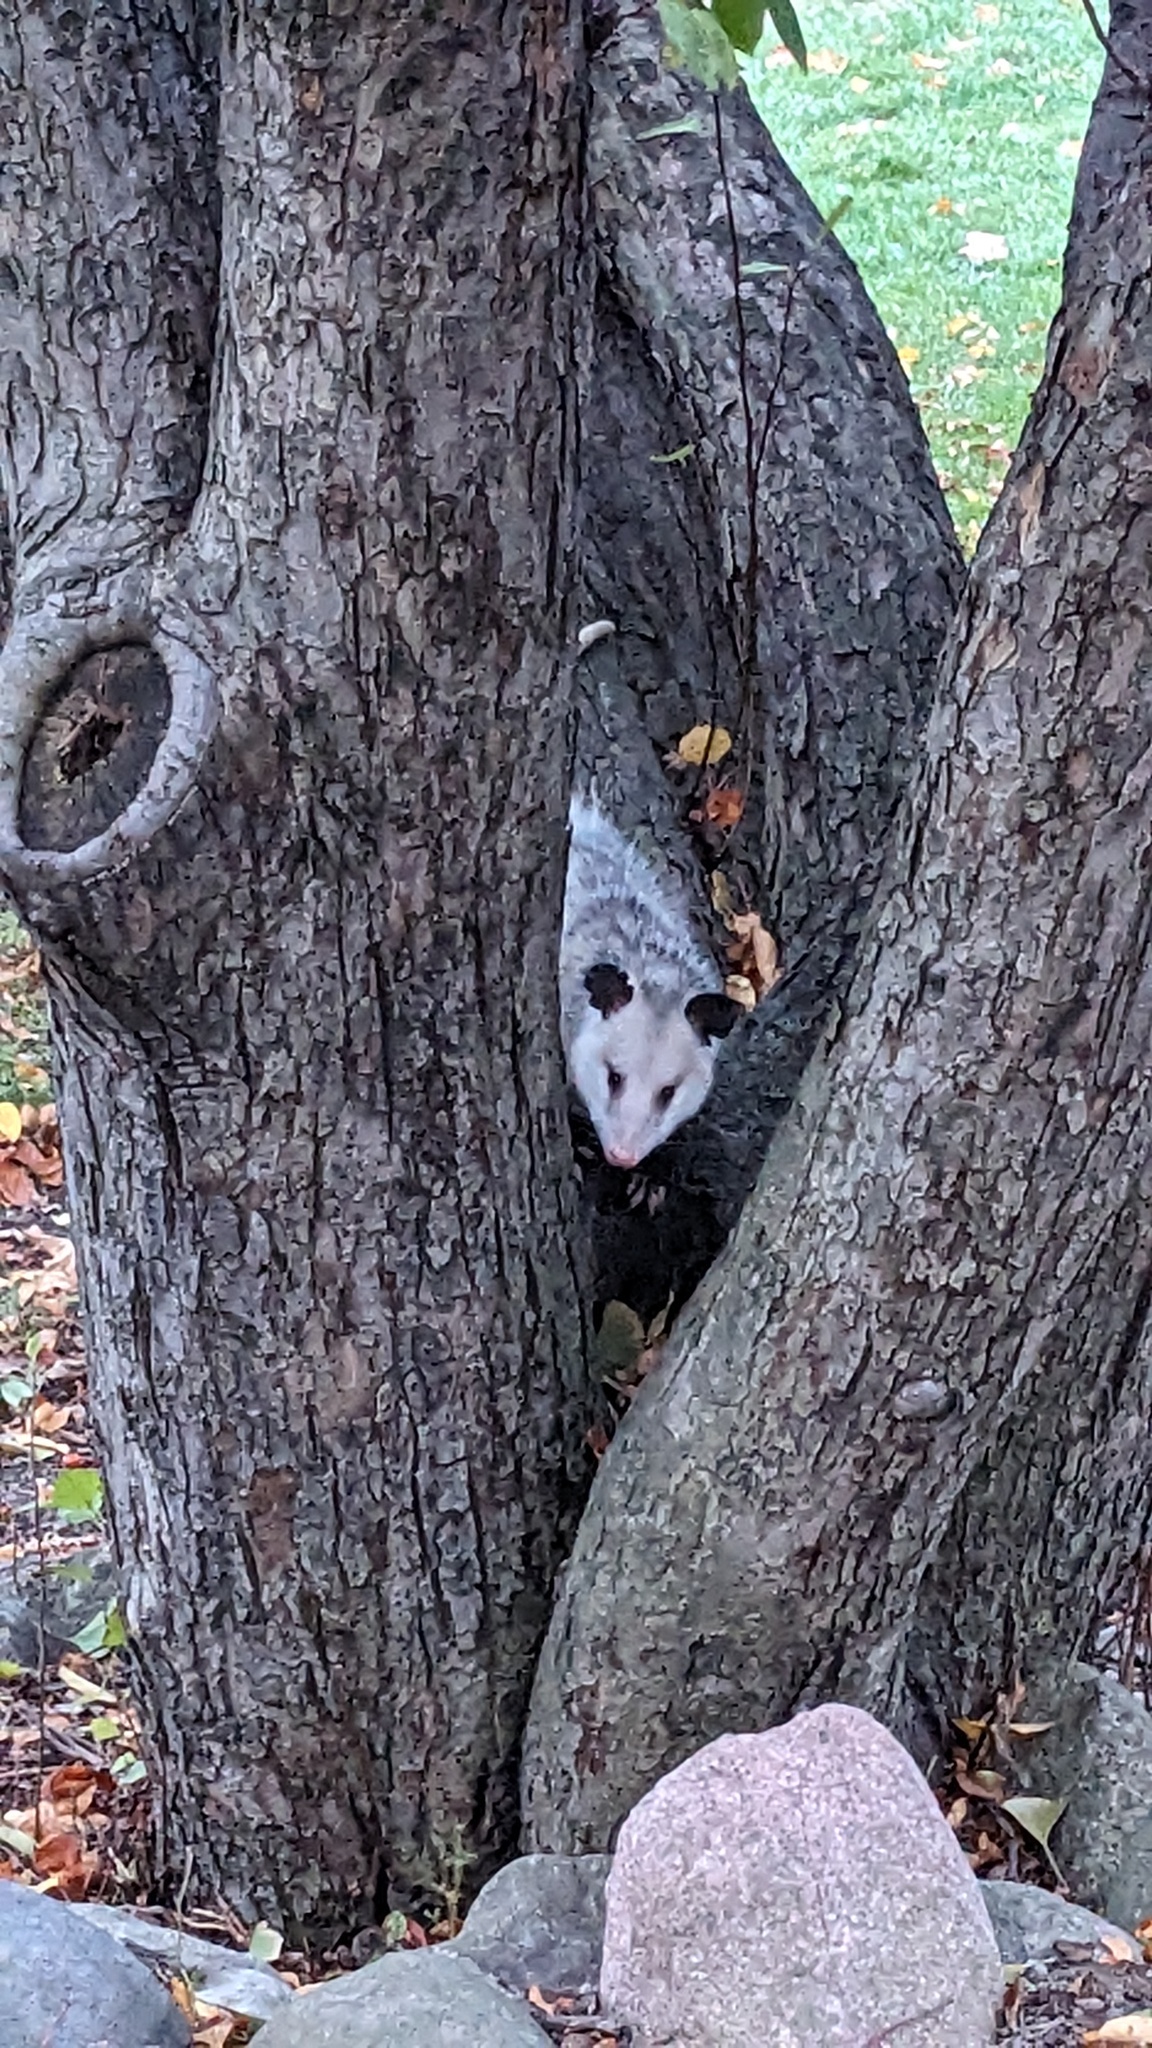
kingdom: Animalia
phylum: Chordata
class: Mammalia
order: Didelphimorphia
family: Didelphidae
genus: Didelphis
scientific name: Didelphis virginiana
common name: Virginia opossum
